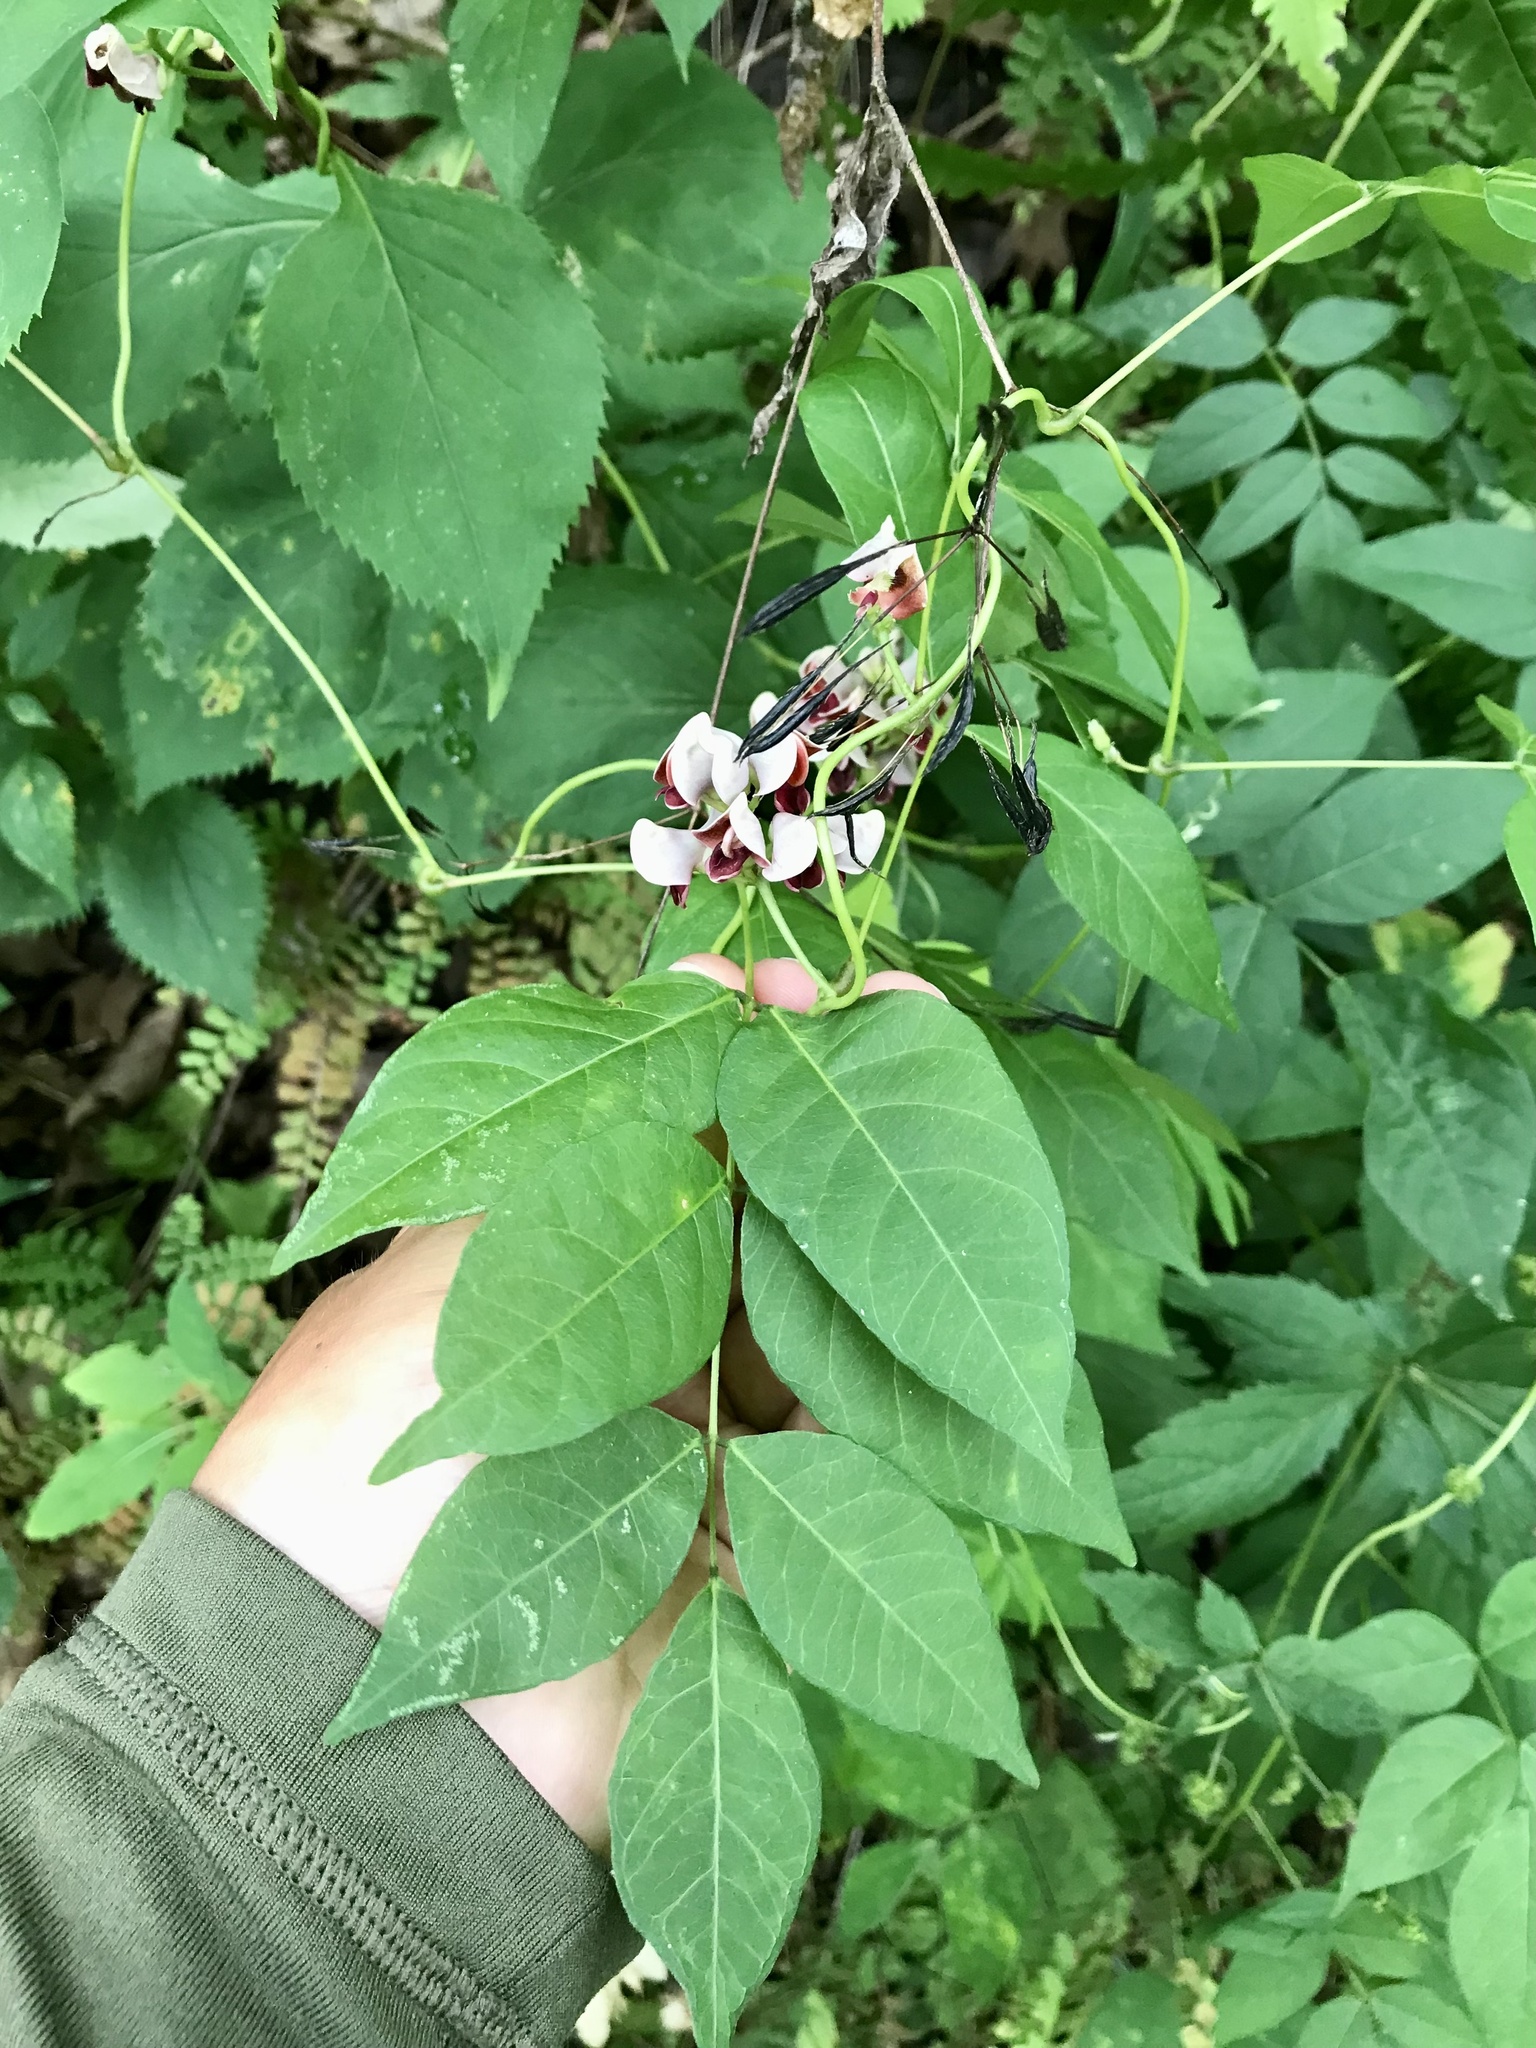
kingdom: Plantae
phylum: Tracheophyta
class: Magnoliopsida
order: Fabales
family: Fabaceae
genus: Apios
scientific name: Apios americana
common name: American potato-bean
